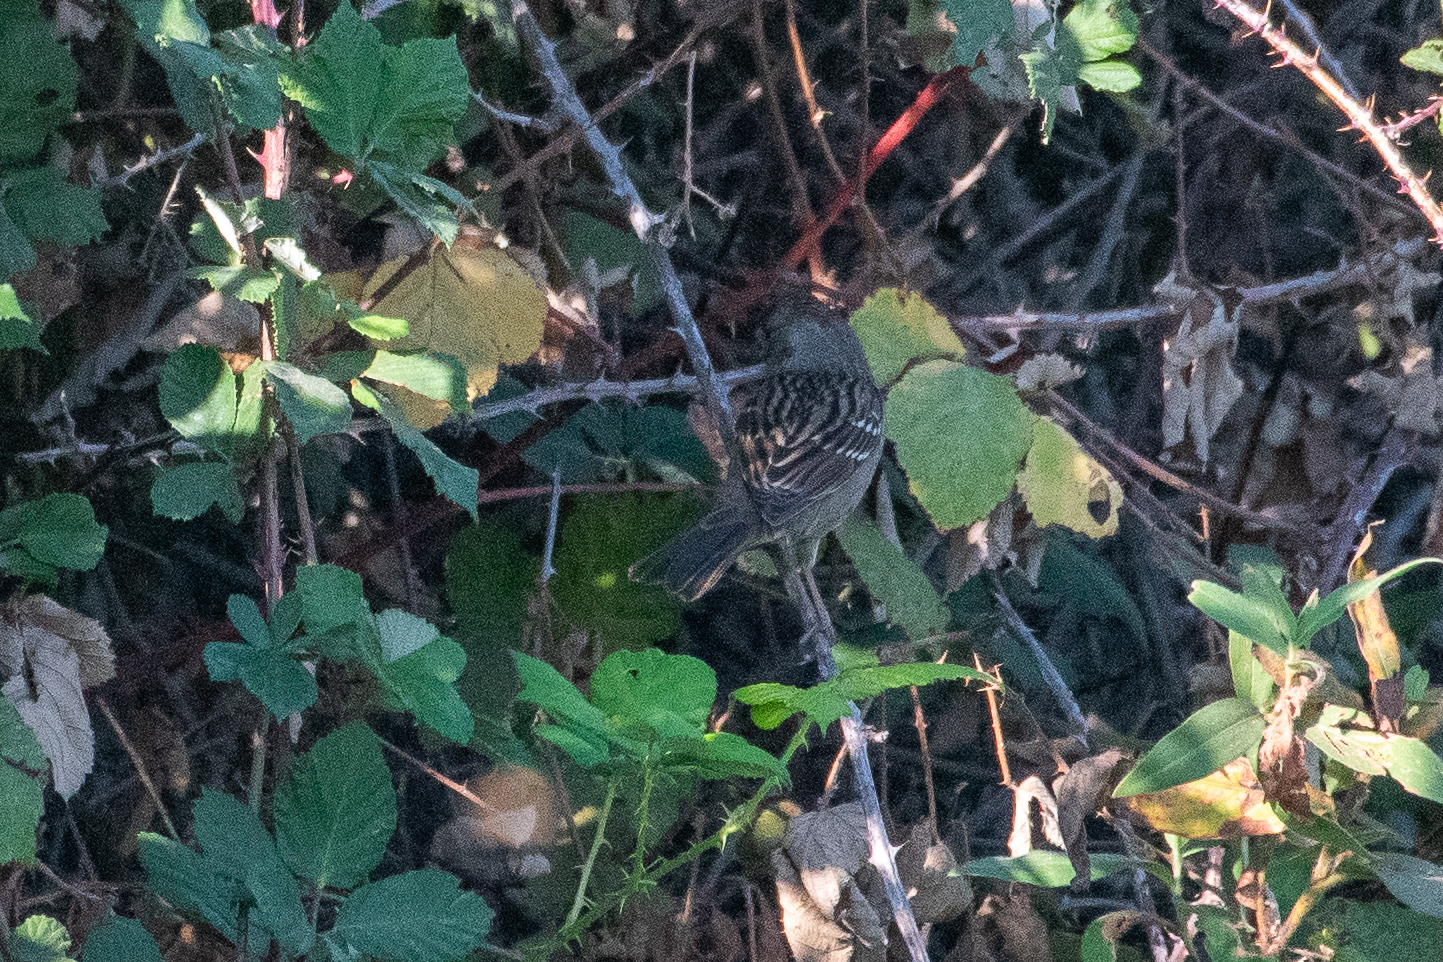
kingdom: Animalia
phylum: Chordata
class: Aves
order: Passeriformes
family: Passerellidae
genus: Zonotrichia
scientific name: Zonotrichia atricapilla
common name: Golden-crowned sparrow
